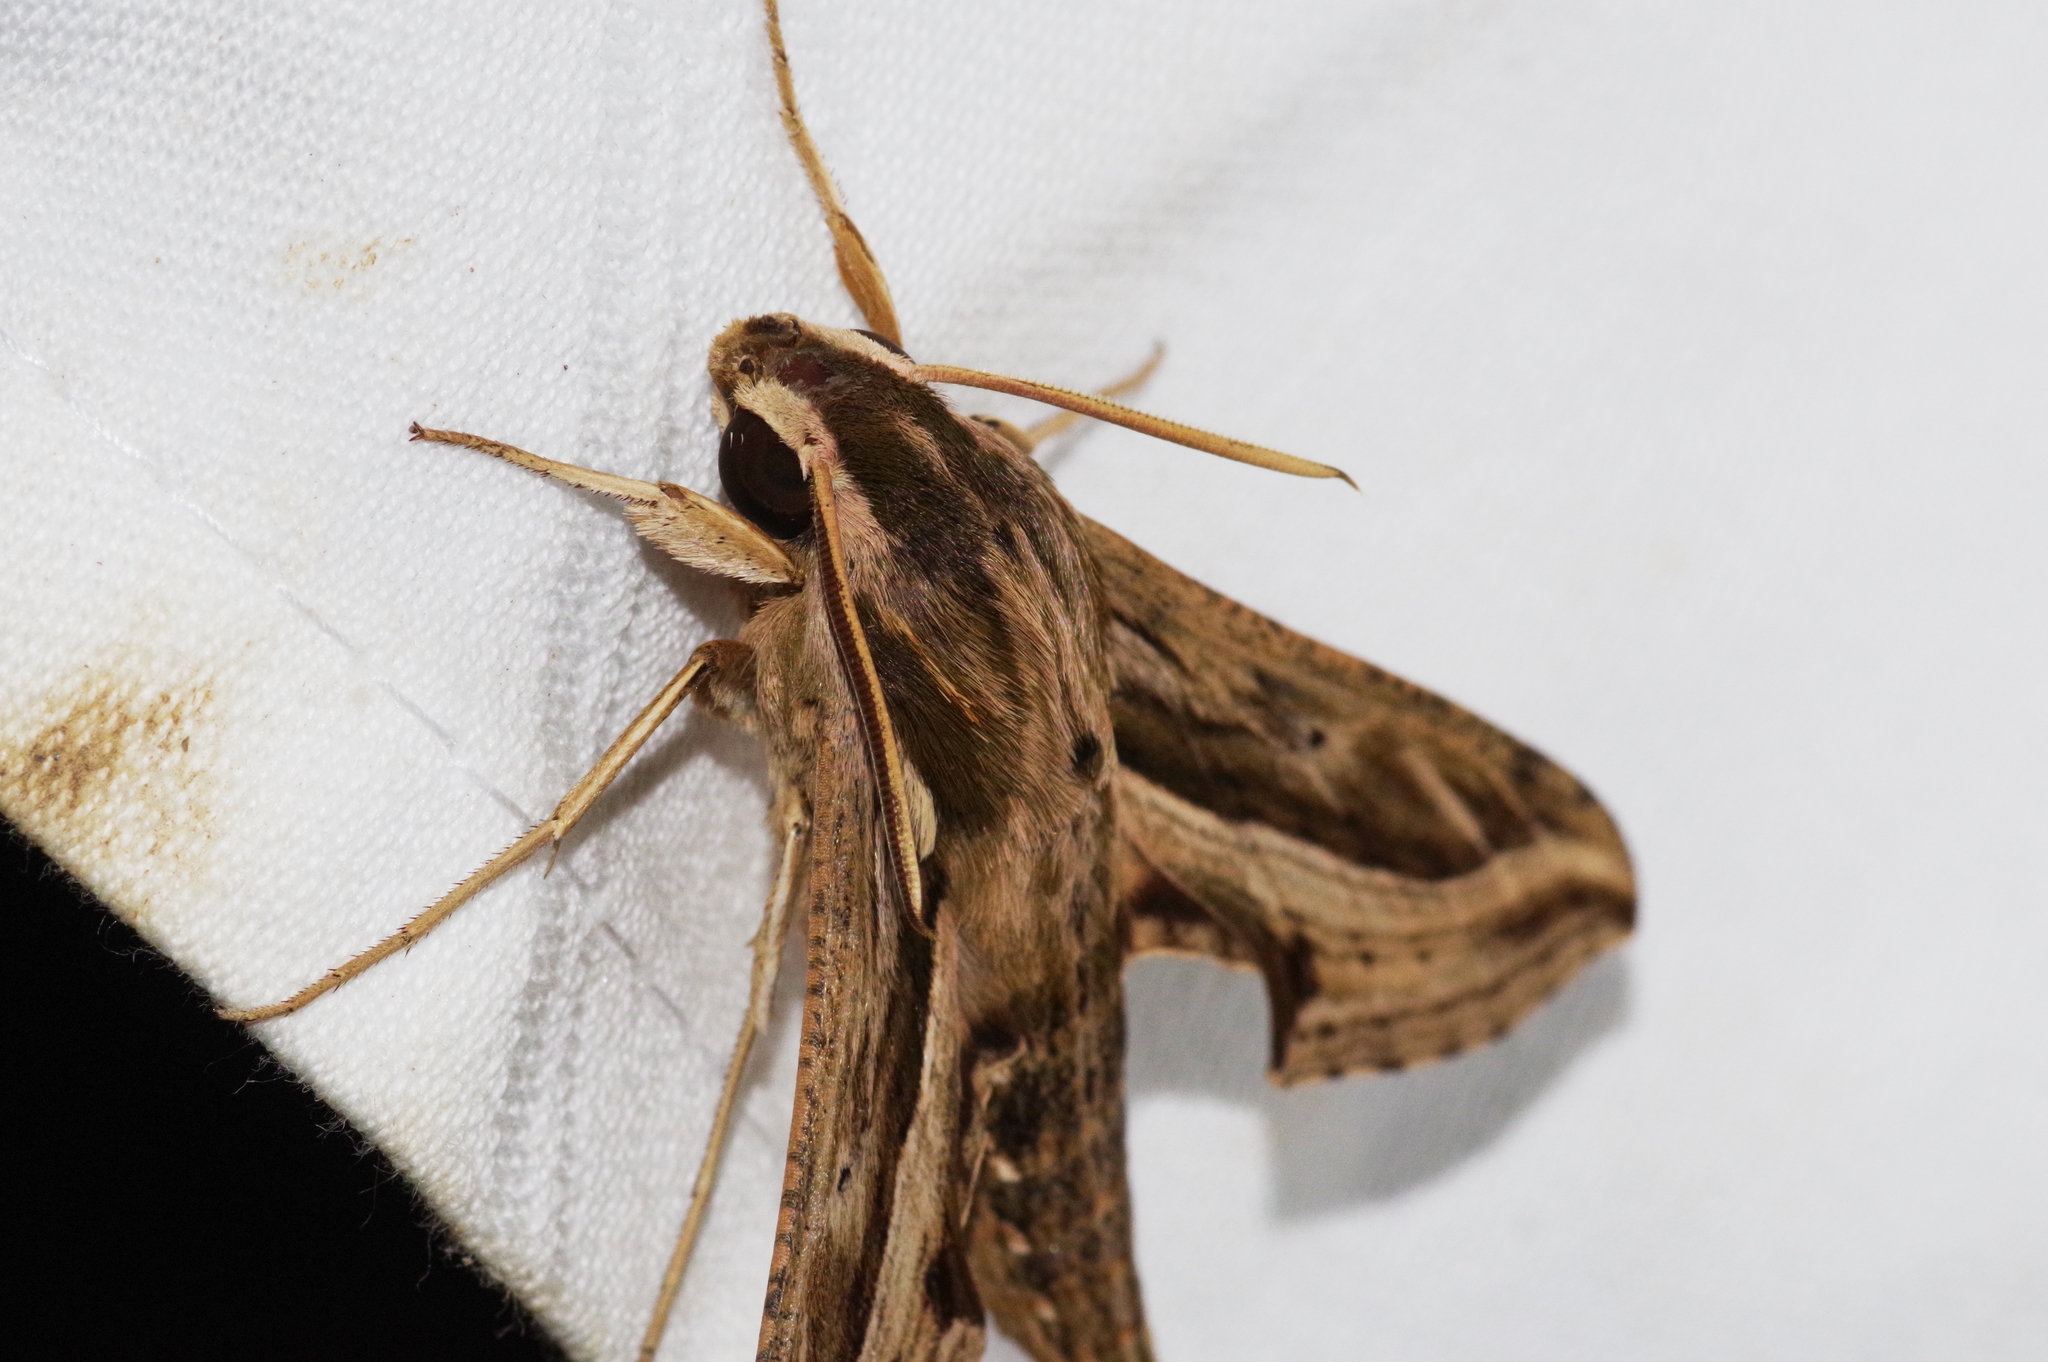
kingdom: Animalia
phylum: Arthropoda
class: Insecta
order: Lepidoptera
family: Sphingidae
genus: Hippotion
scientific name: Hippotion velox
